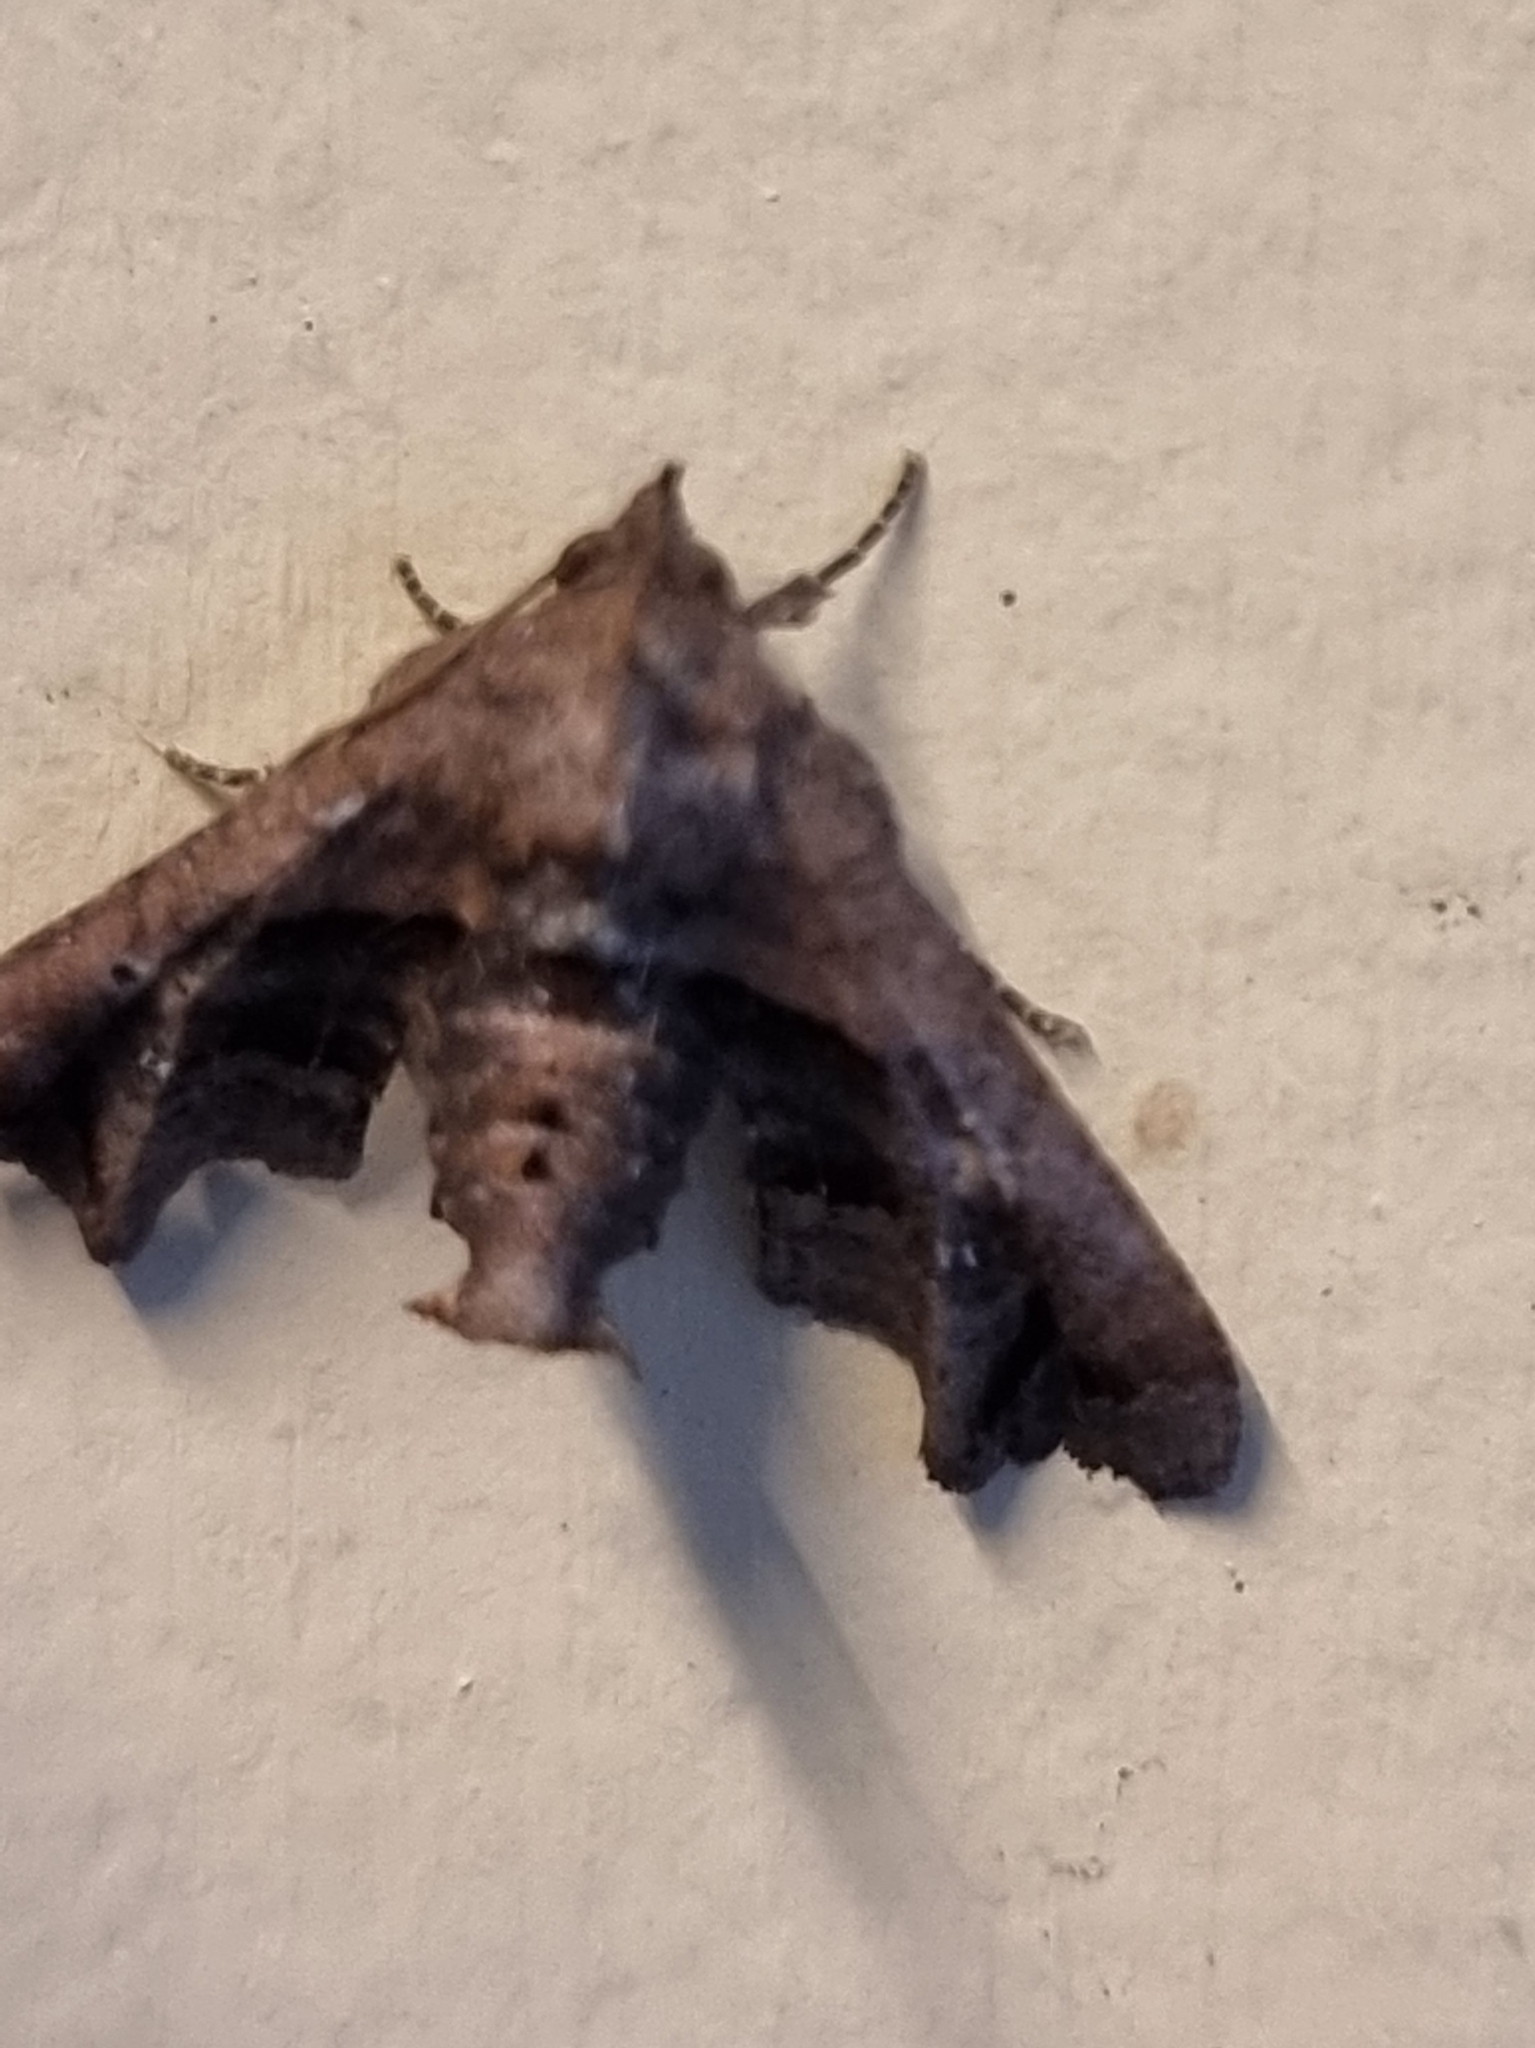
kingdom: Animalia
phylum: Arthropoda
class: Insecta
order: Lepidoptera
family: Euteliidae
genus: Targalla
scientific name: Targalla plumbea
